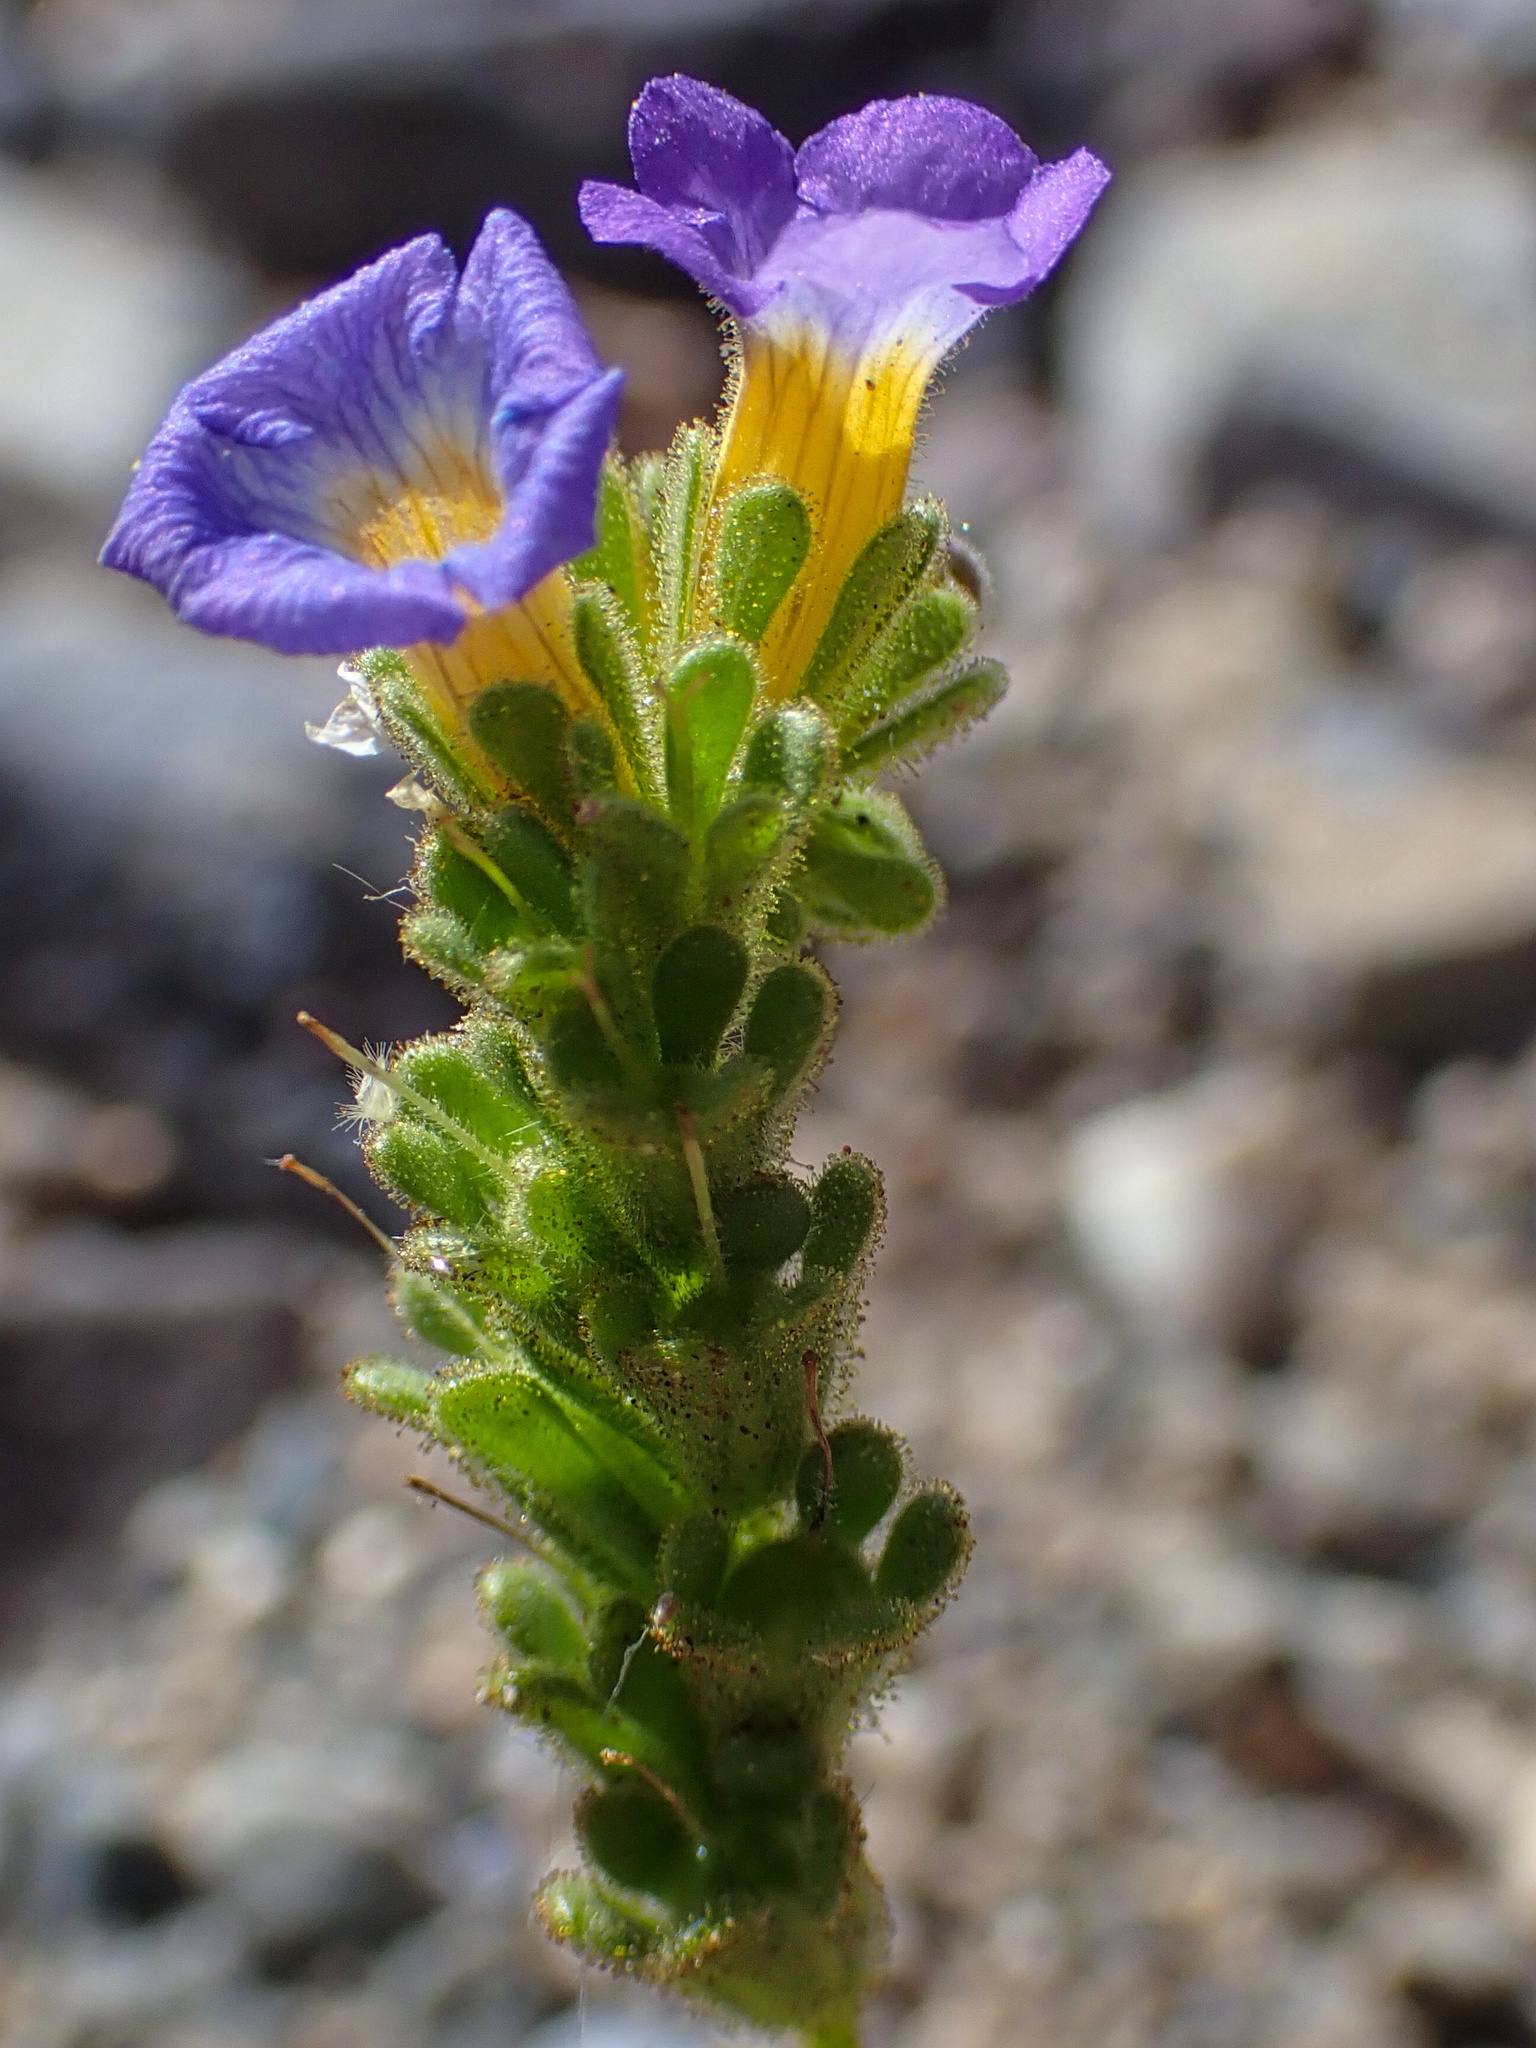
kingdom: Plantae
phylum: Tracheophyta
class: Magnoliopsida
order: Boraginales
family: Hydrophyllaceae
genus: Phacelia
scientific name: Phacelia fremontii
